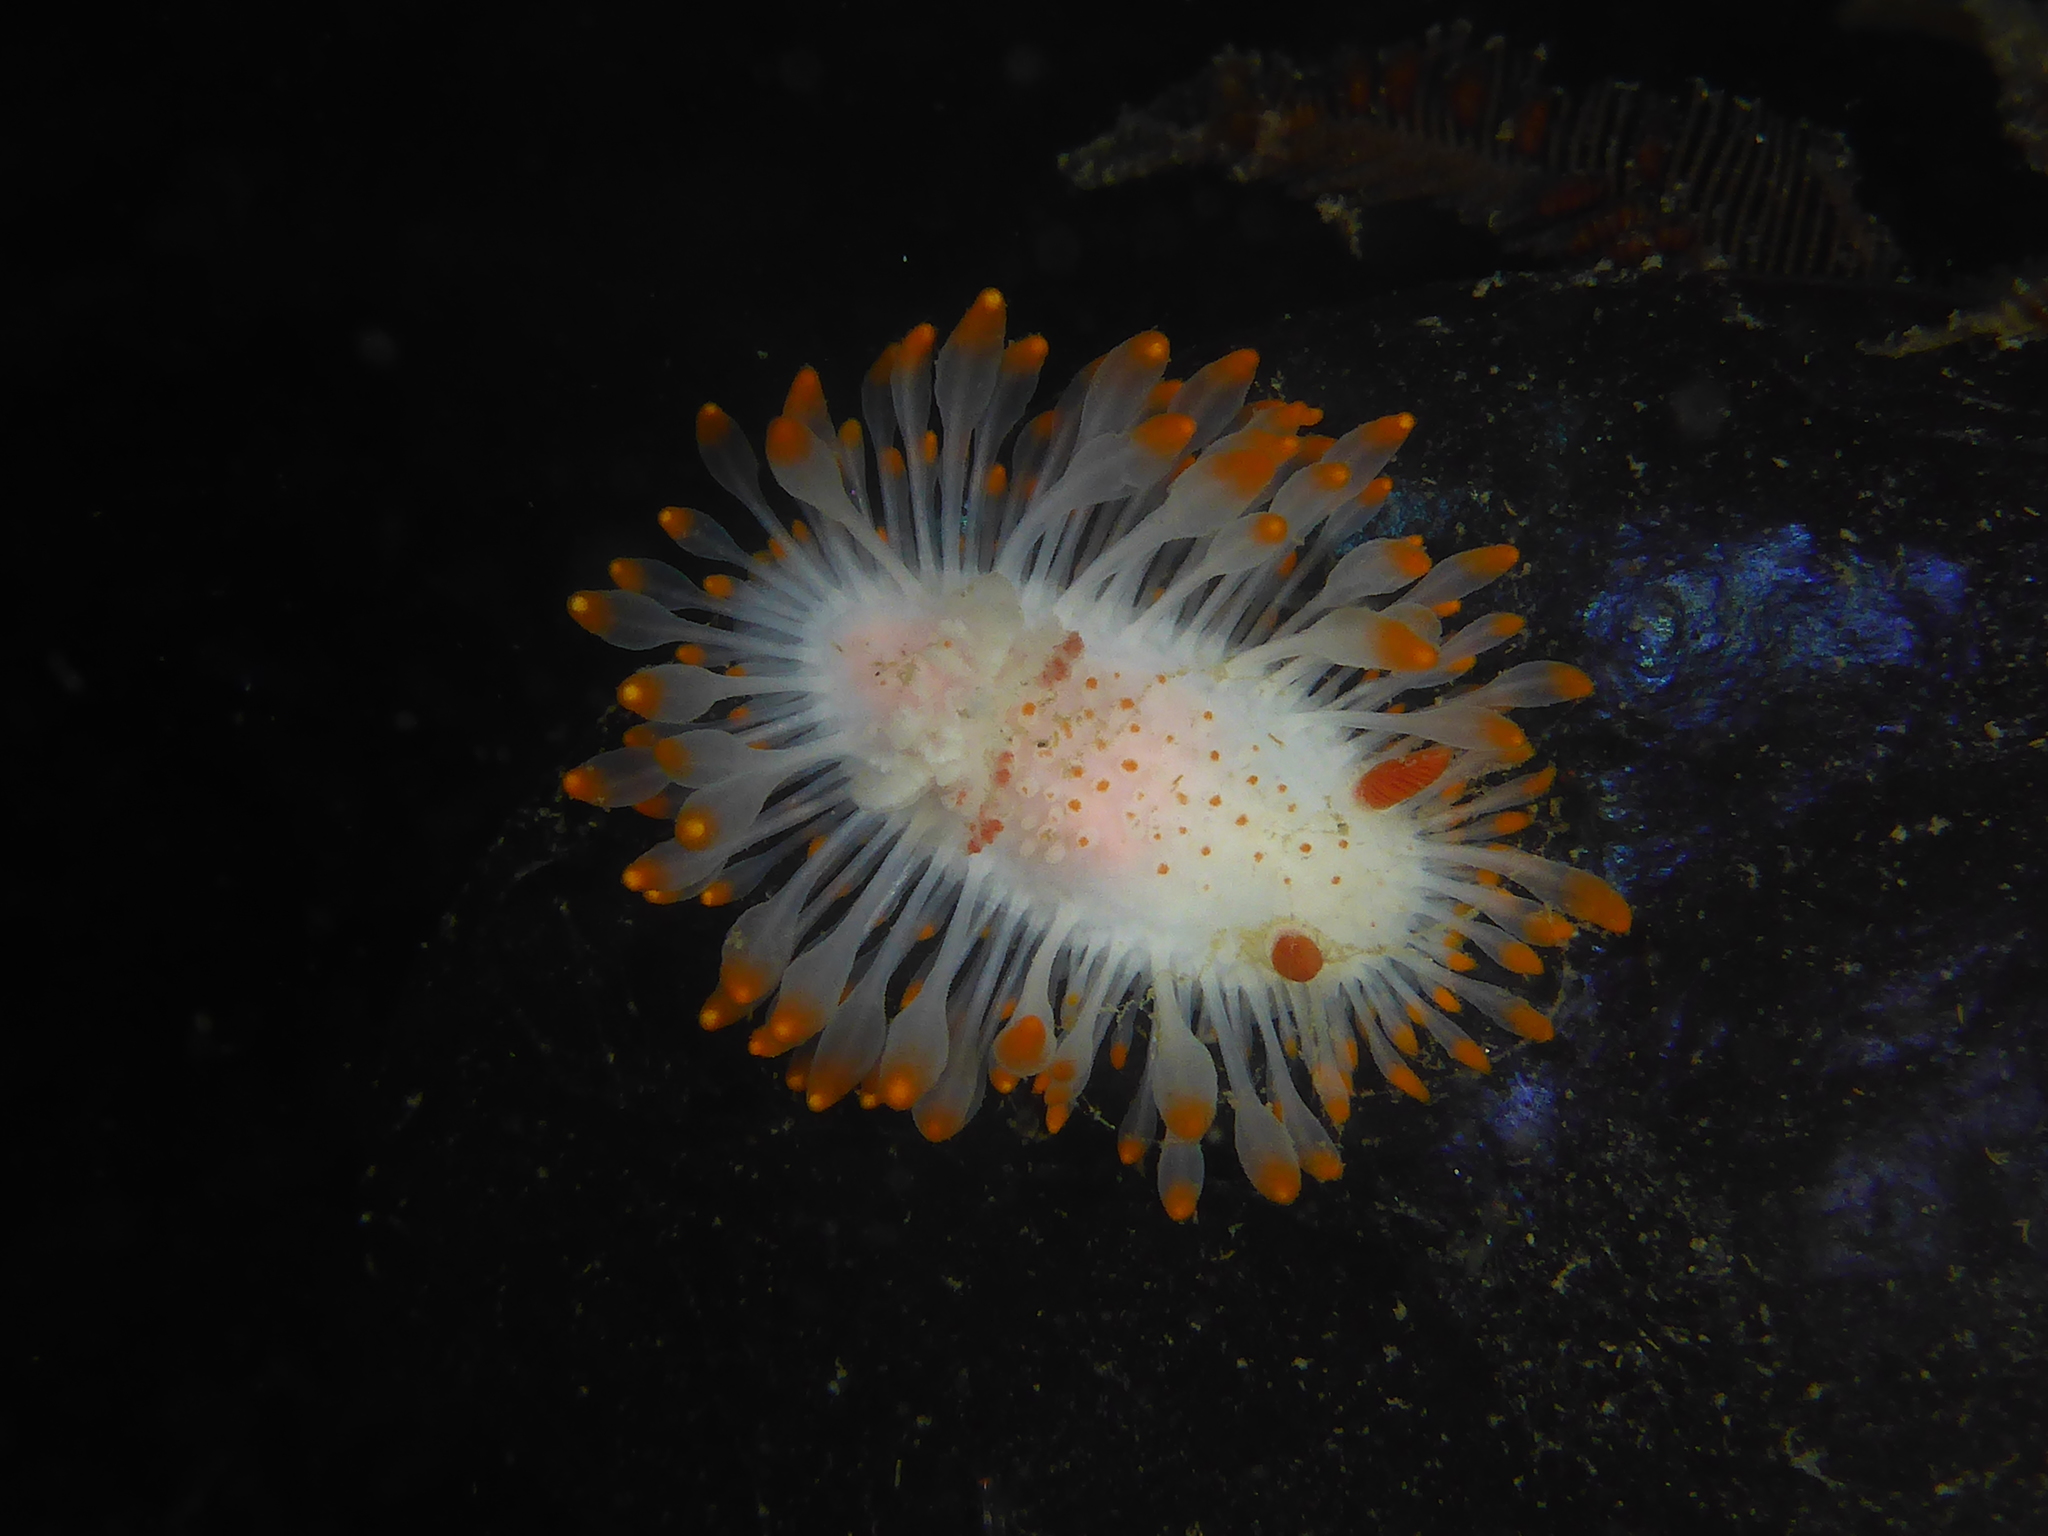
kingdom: Animalia
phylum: Mollusca
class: Gastropoda
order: Nudibranchia
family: Polyceridae
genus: Limacia
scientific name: Limacia cockerelli
